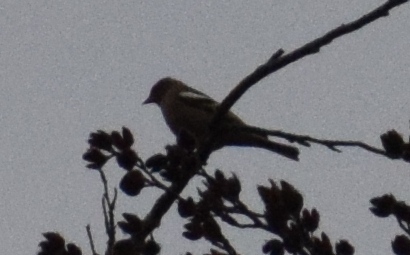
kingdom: Animalia
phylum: Chordata
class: Aves
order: Passeriformes
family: Fringillidae
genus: Fringilla
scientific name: Fringilla coelebs
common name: Common chaffinch
